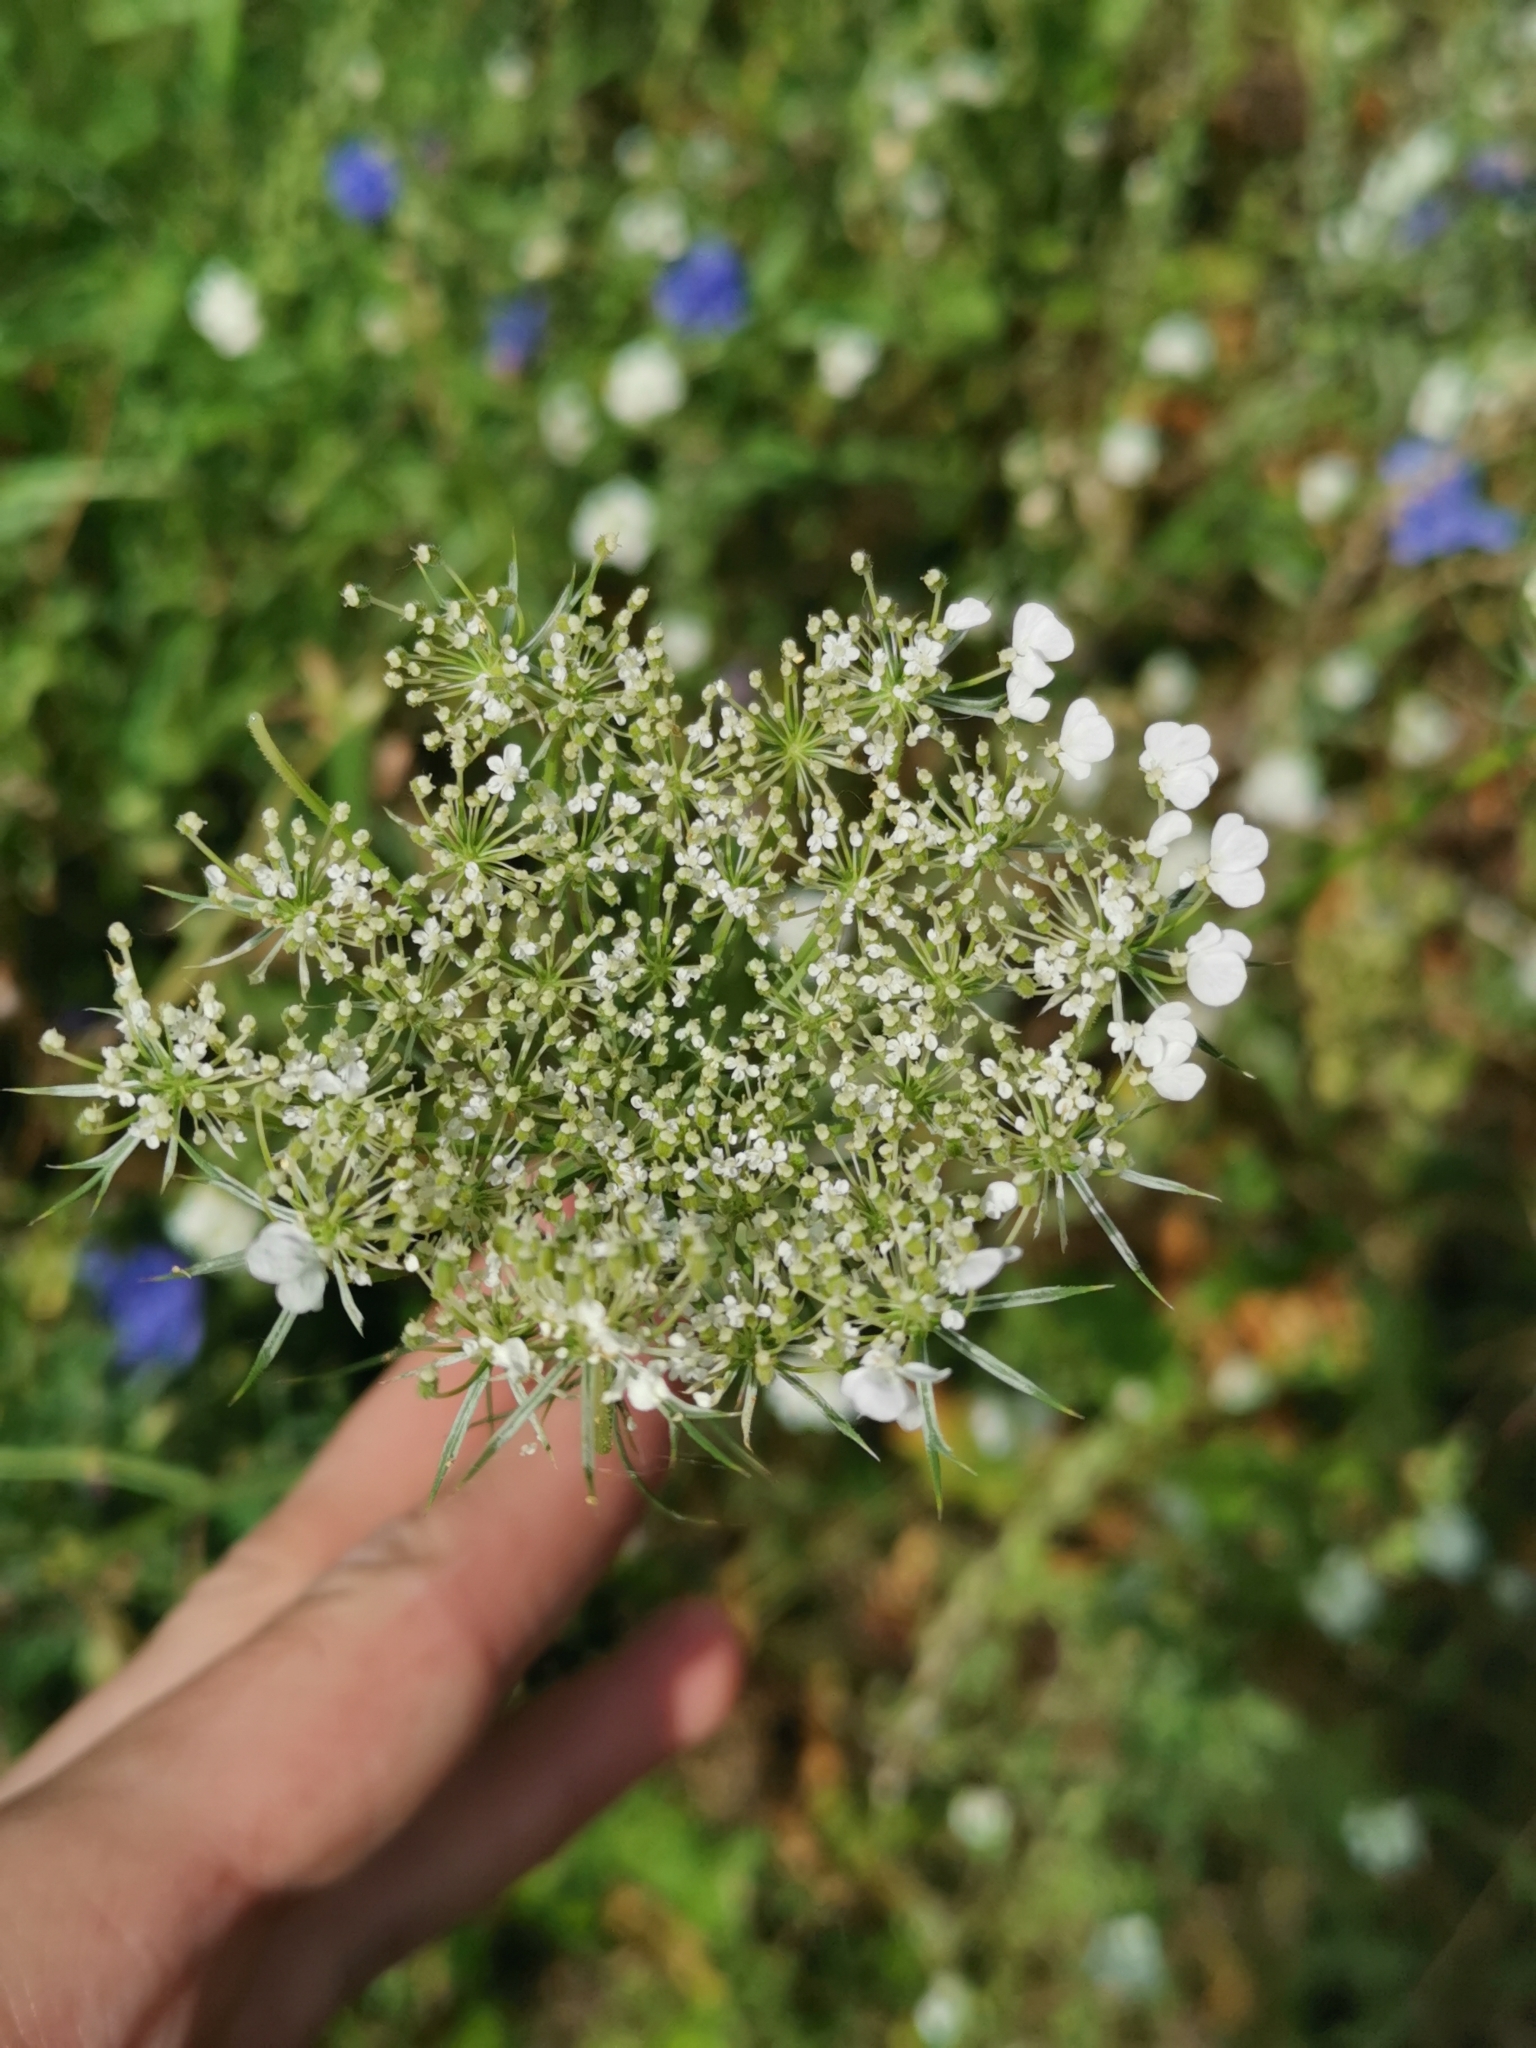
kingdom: Plantae
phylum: Tracheophyta
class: Magnoliopsida
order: Apiales
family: Apiaceae
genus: Daucus
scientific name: Daucus carota
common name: Wild carrot
